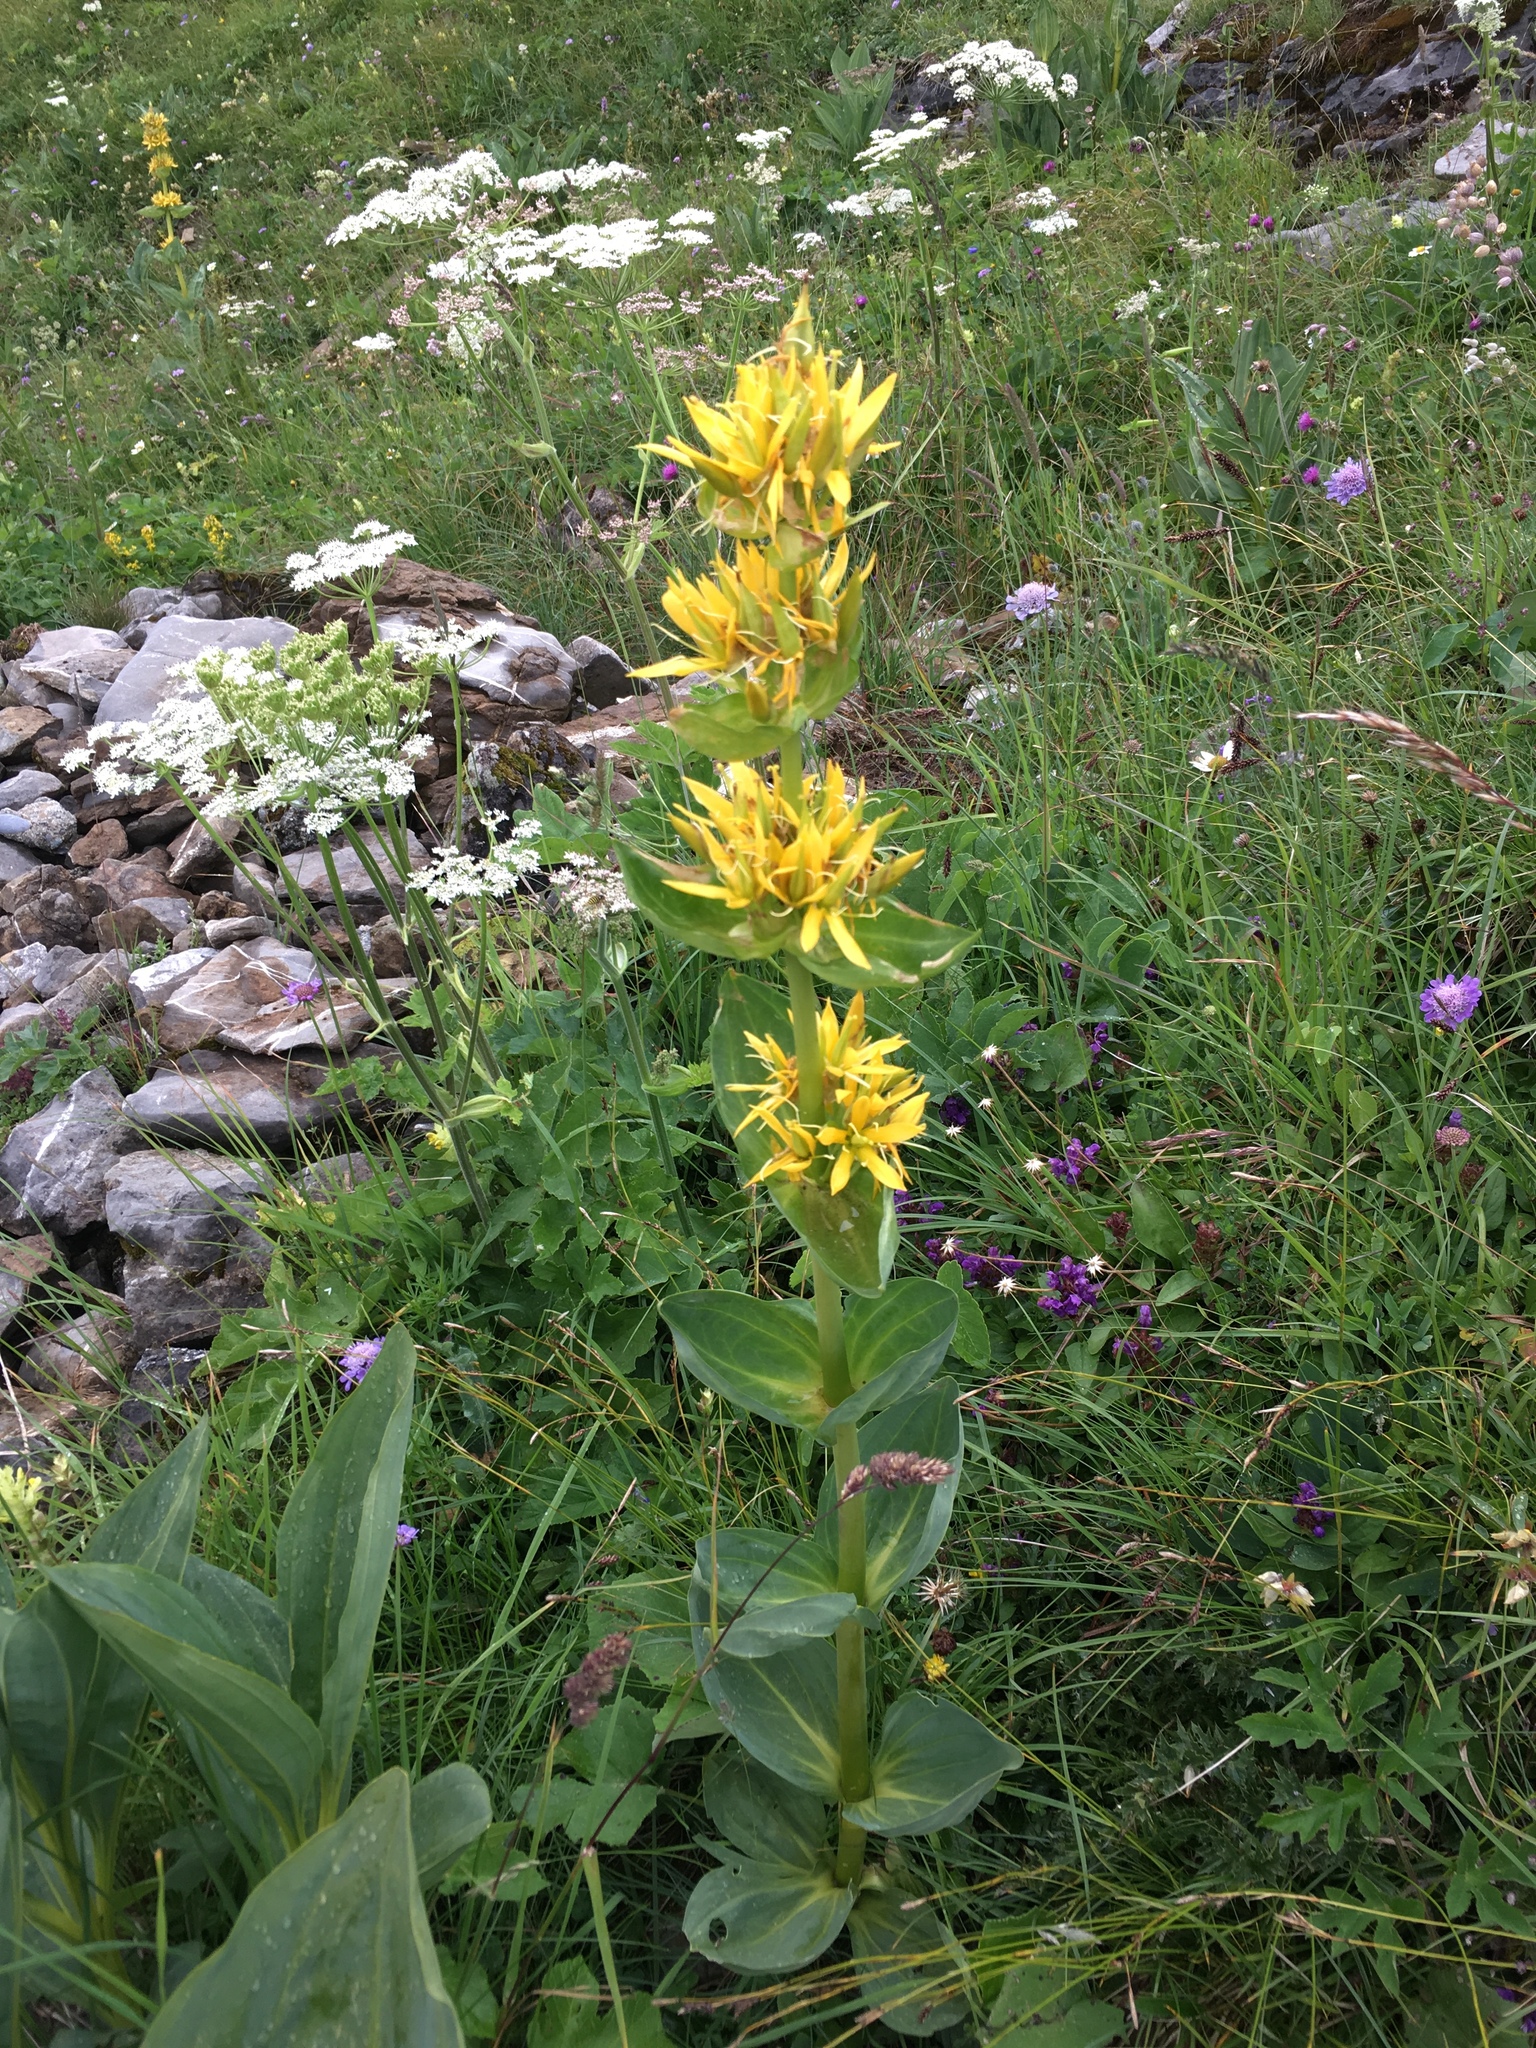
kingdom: Plantae
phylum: Tracheophyta
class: Magnoliopsida
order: Gentianales
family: Gentianaceae
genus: Gentiana
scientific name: Gentiana lutea
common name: Great yellow gentian
